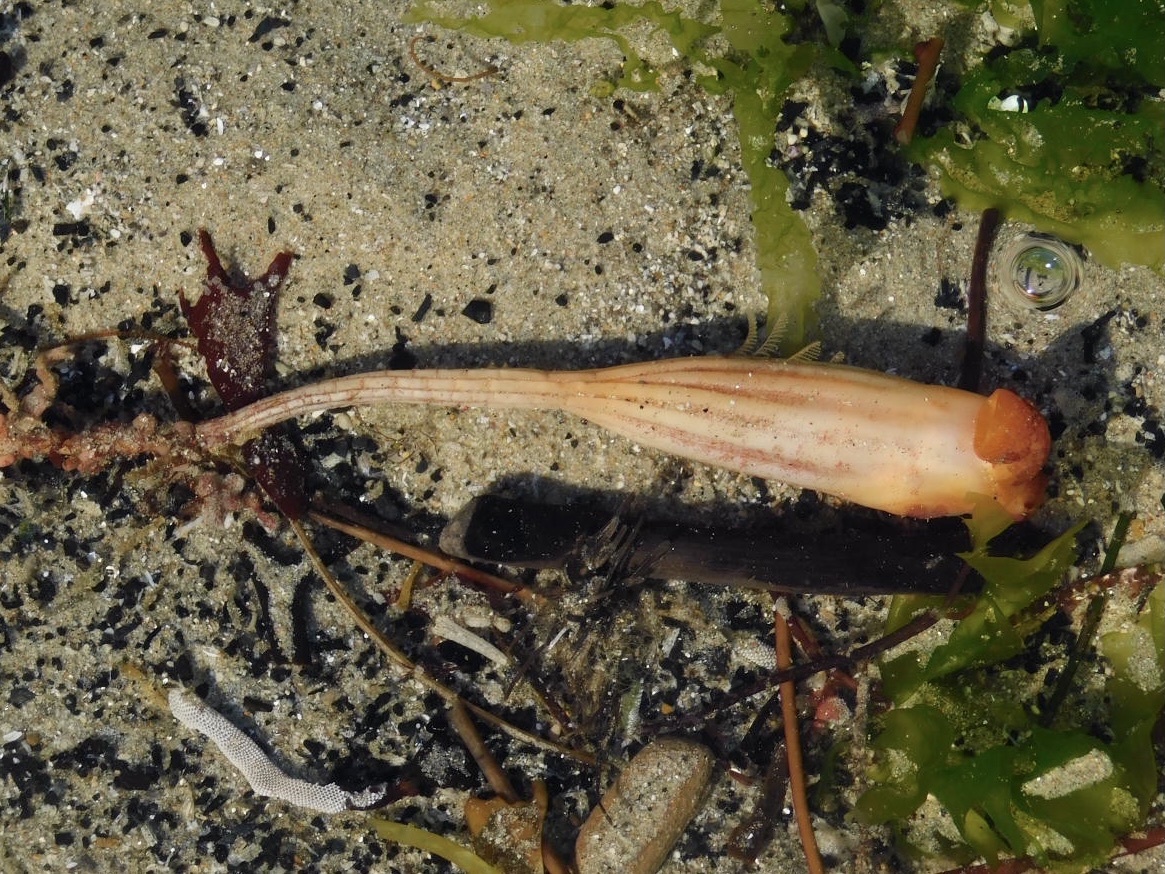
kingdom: Animalia
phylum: Chordata
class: Ascidiacea
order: Stolidobranchia
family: Styelidae
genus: Styela
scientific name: Styela montereyensis
